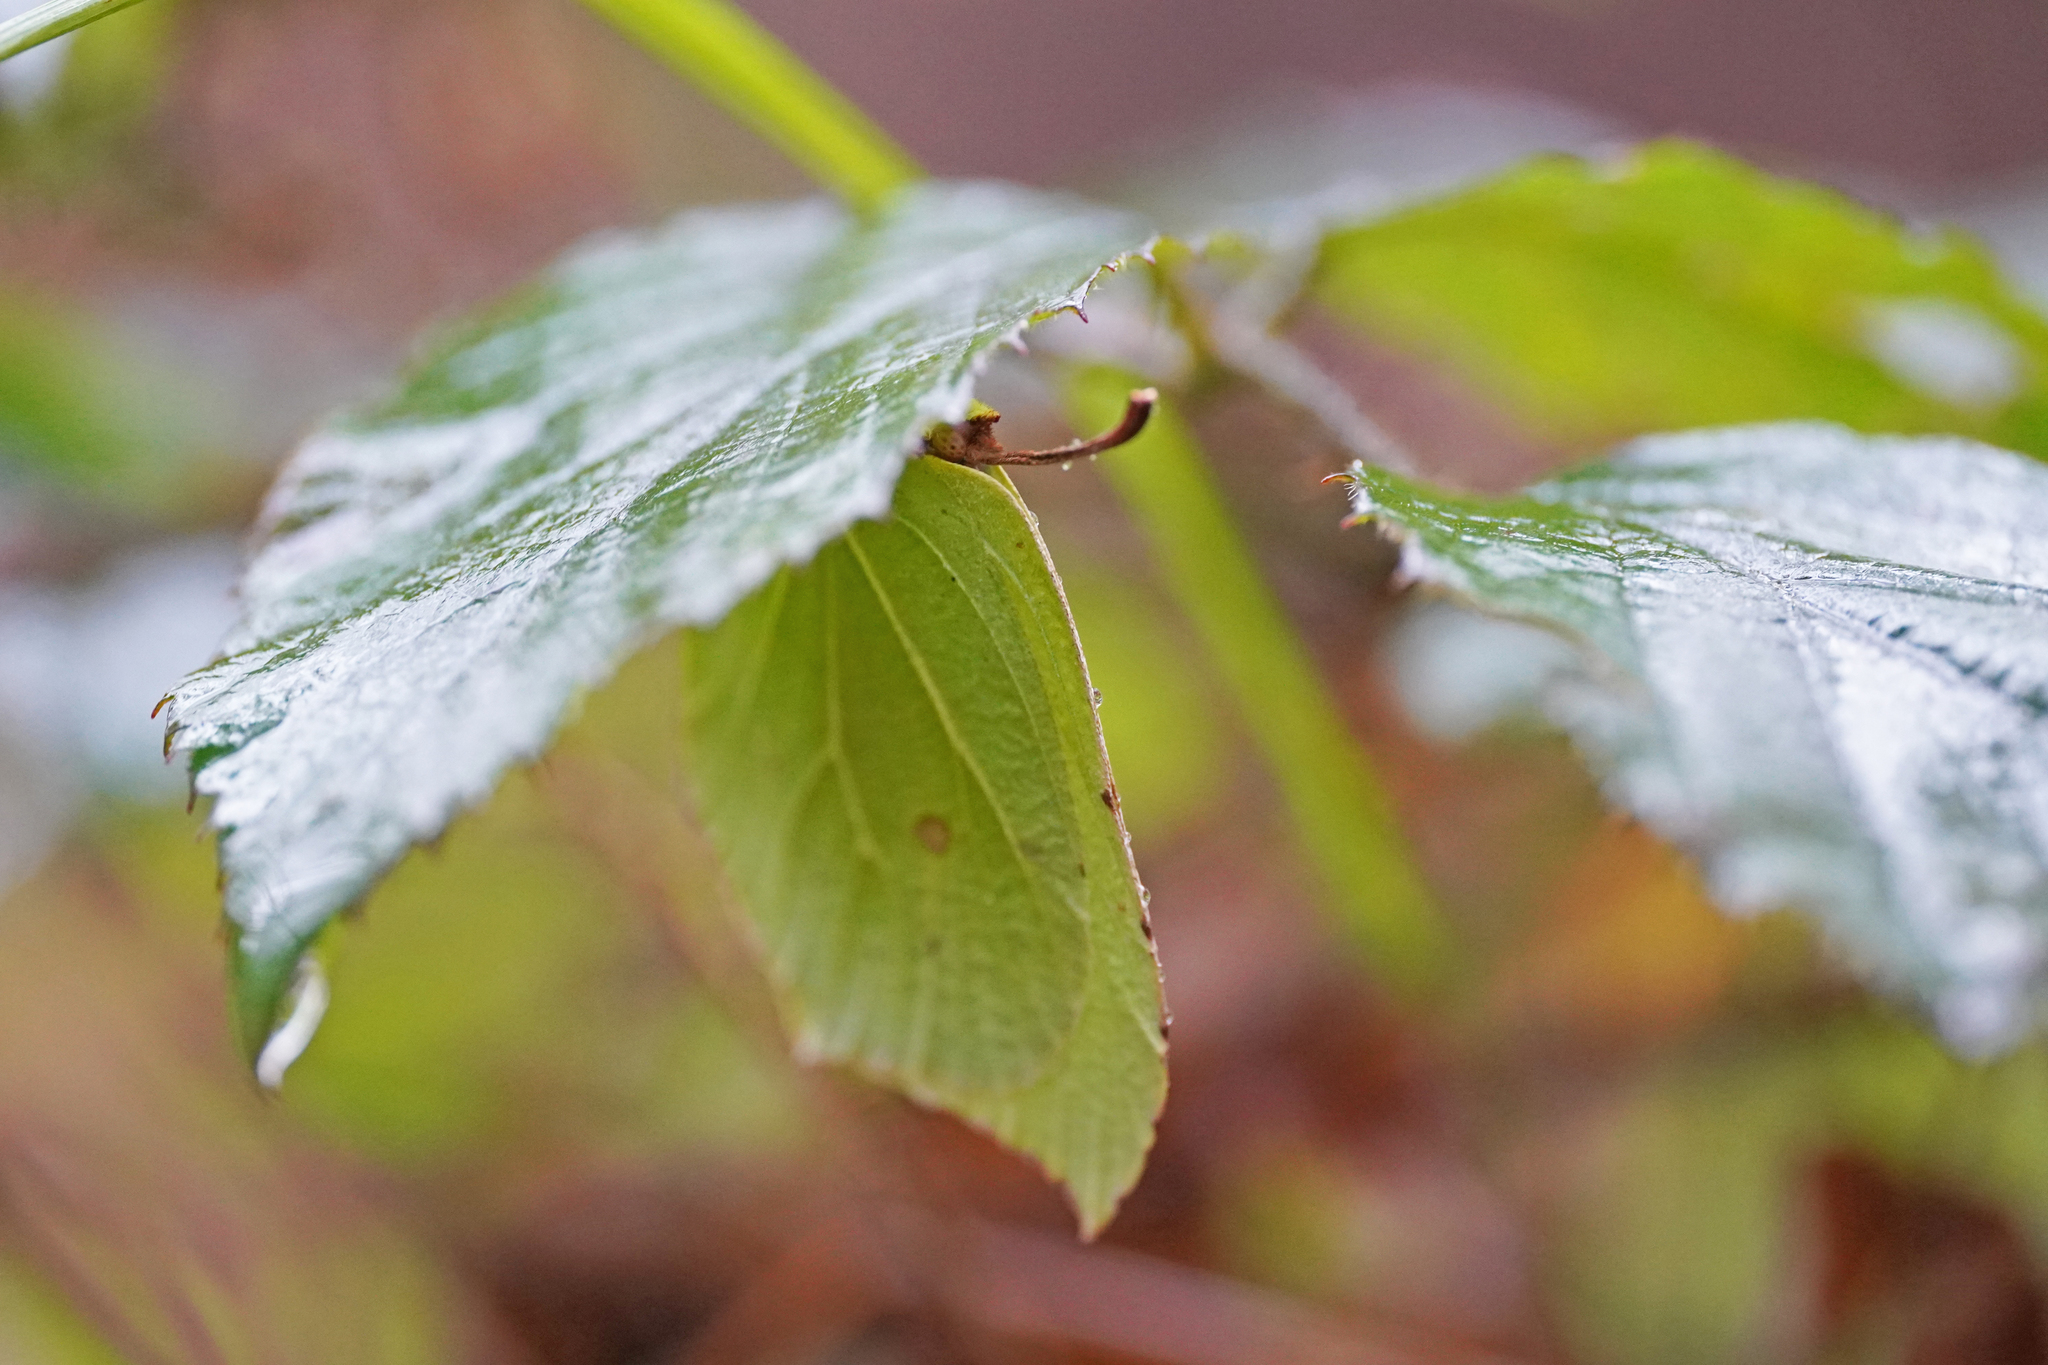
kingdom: Animalia
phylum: Arthropoda
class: Insecta
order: Lepidoptera
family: Pieridae
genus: Gonepteryx
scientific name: Gonepteryx rhamni
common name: Brimstone
